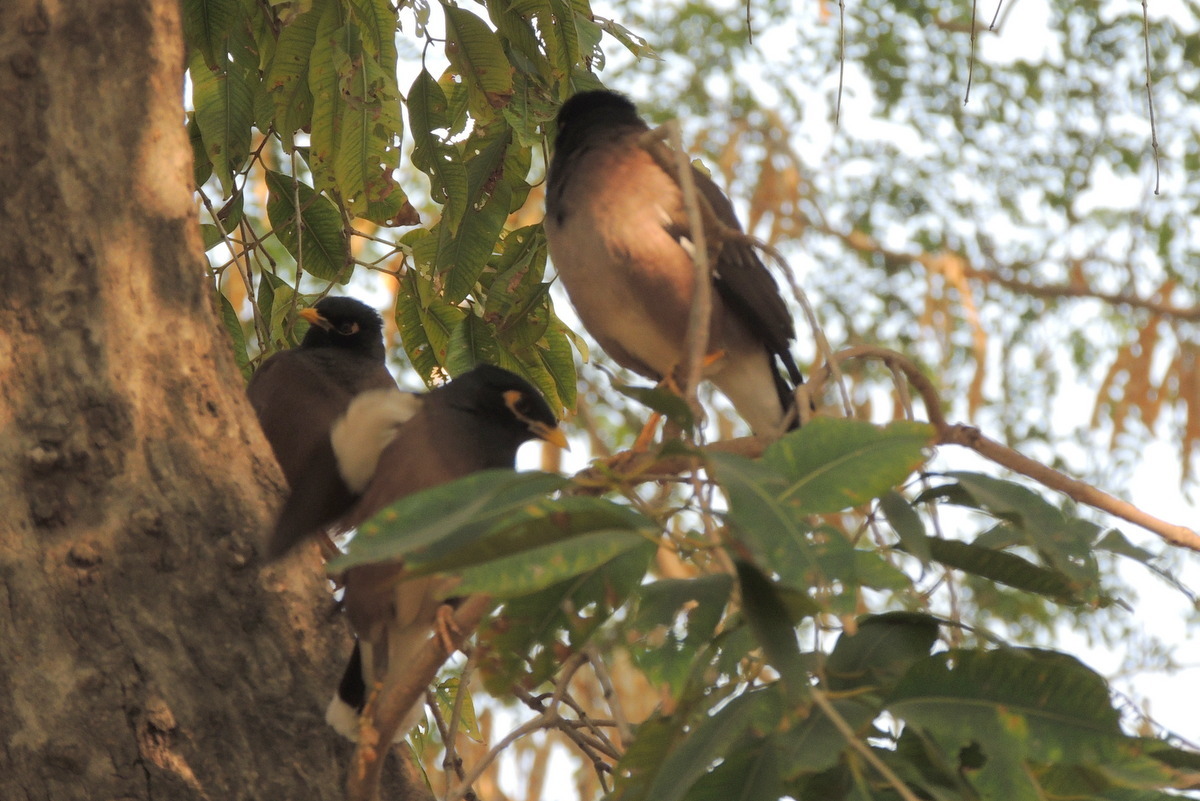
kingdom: Animalia
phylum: Chordata
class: Aves
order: Passeriformes
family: Sturnidae
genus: Acridotheres
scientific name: Acridotheres tristis
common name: Common myna
